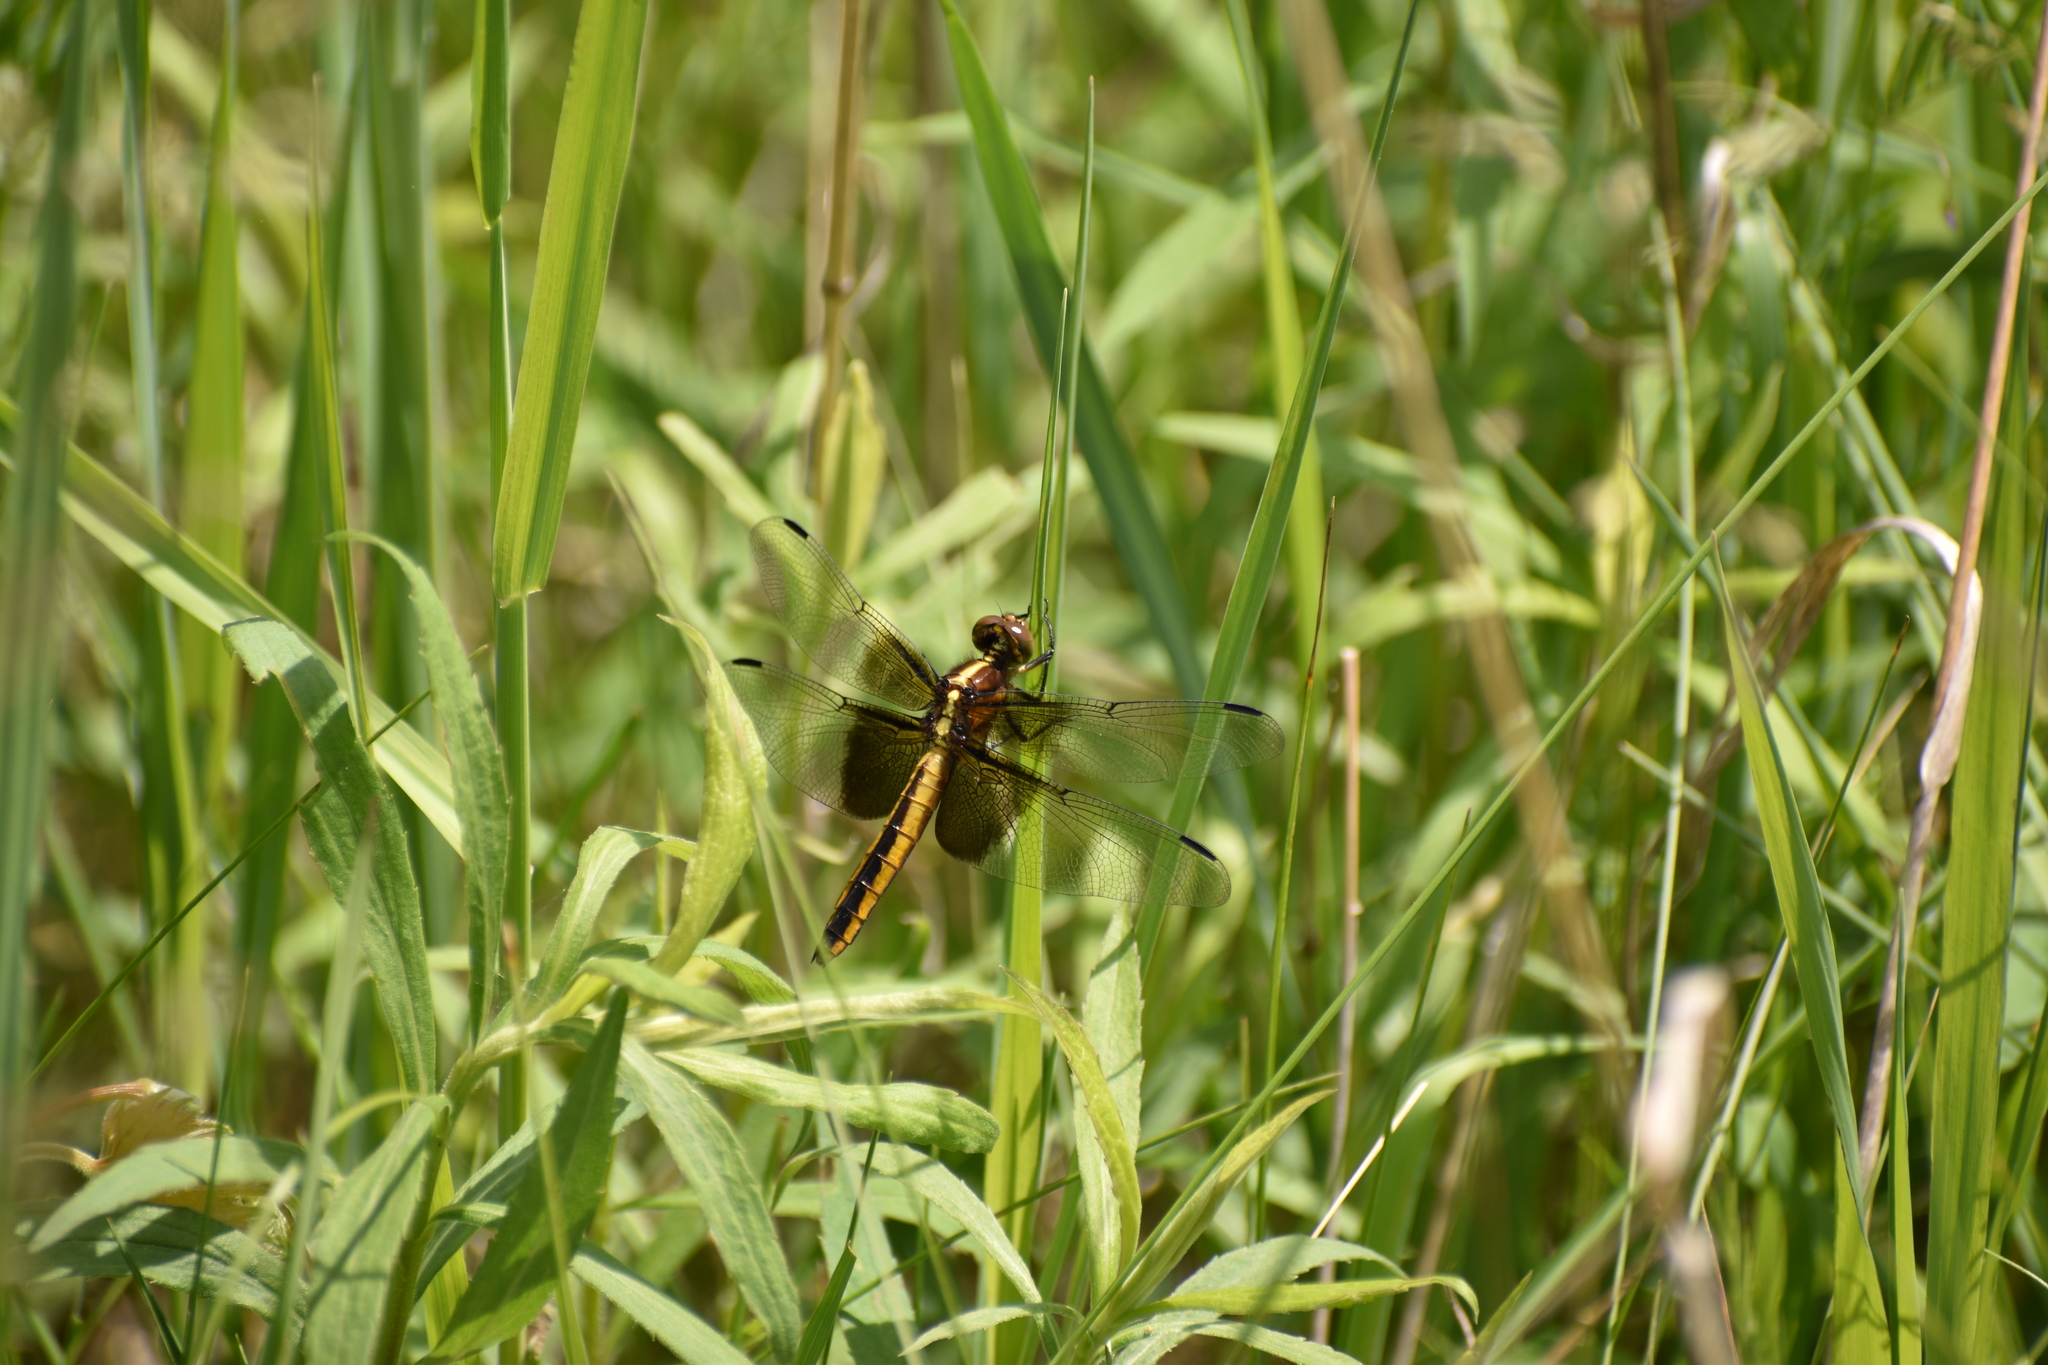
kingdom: Animalia
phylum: Arthropoda
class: Insecta
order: Odonata
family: Libellulidae
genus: Libellula
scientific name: Libellula luctuosa
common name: Widow skimmer
